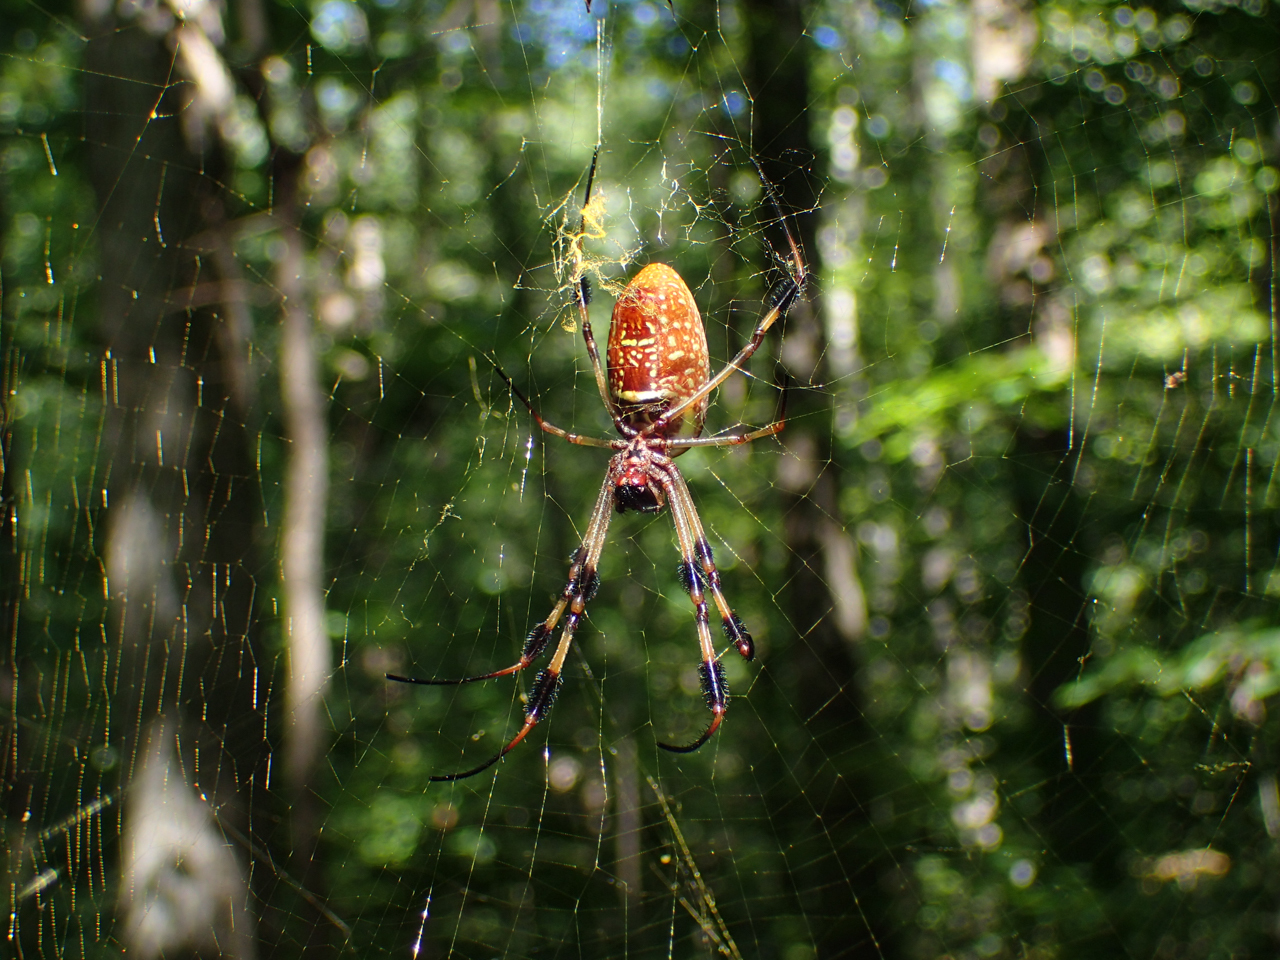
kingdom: Animalia
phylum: Arthropoda
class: Arachnida
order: Araneae
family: Araneidae
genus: Trichonephila
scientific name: Trichonephila clavipes
